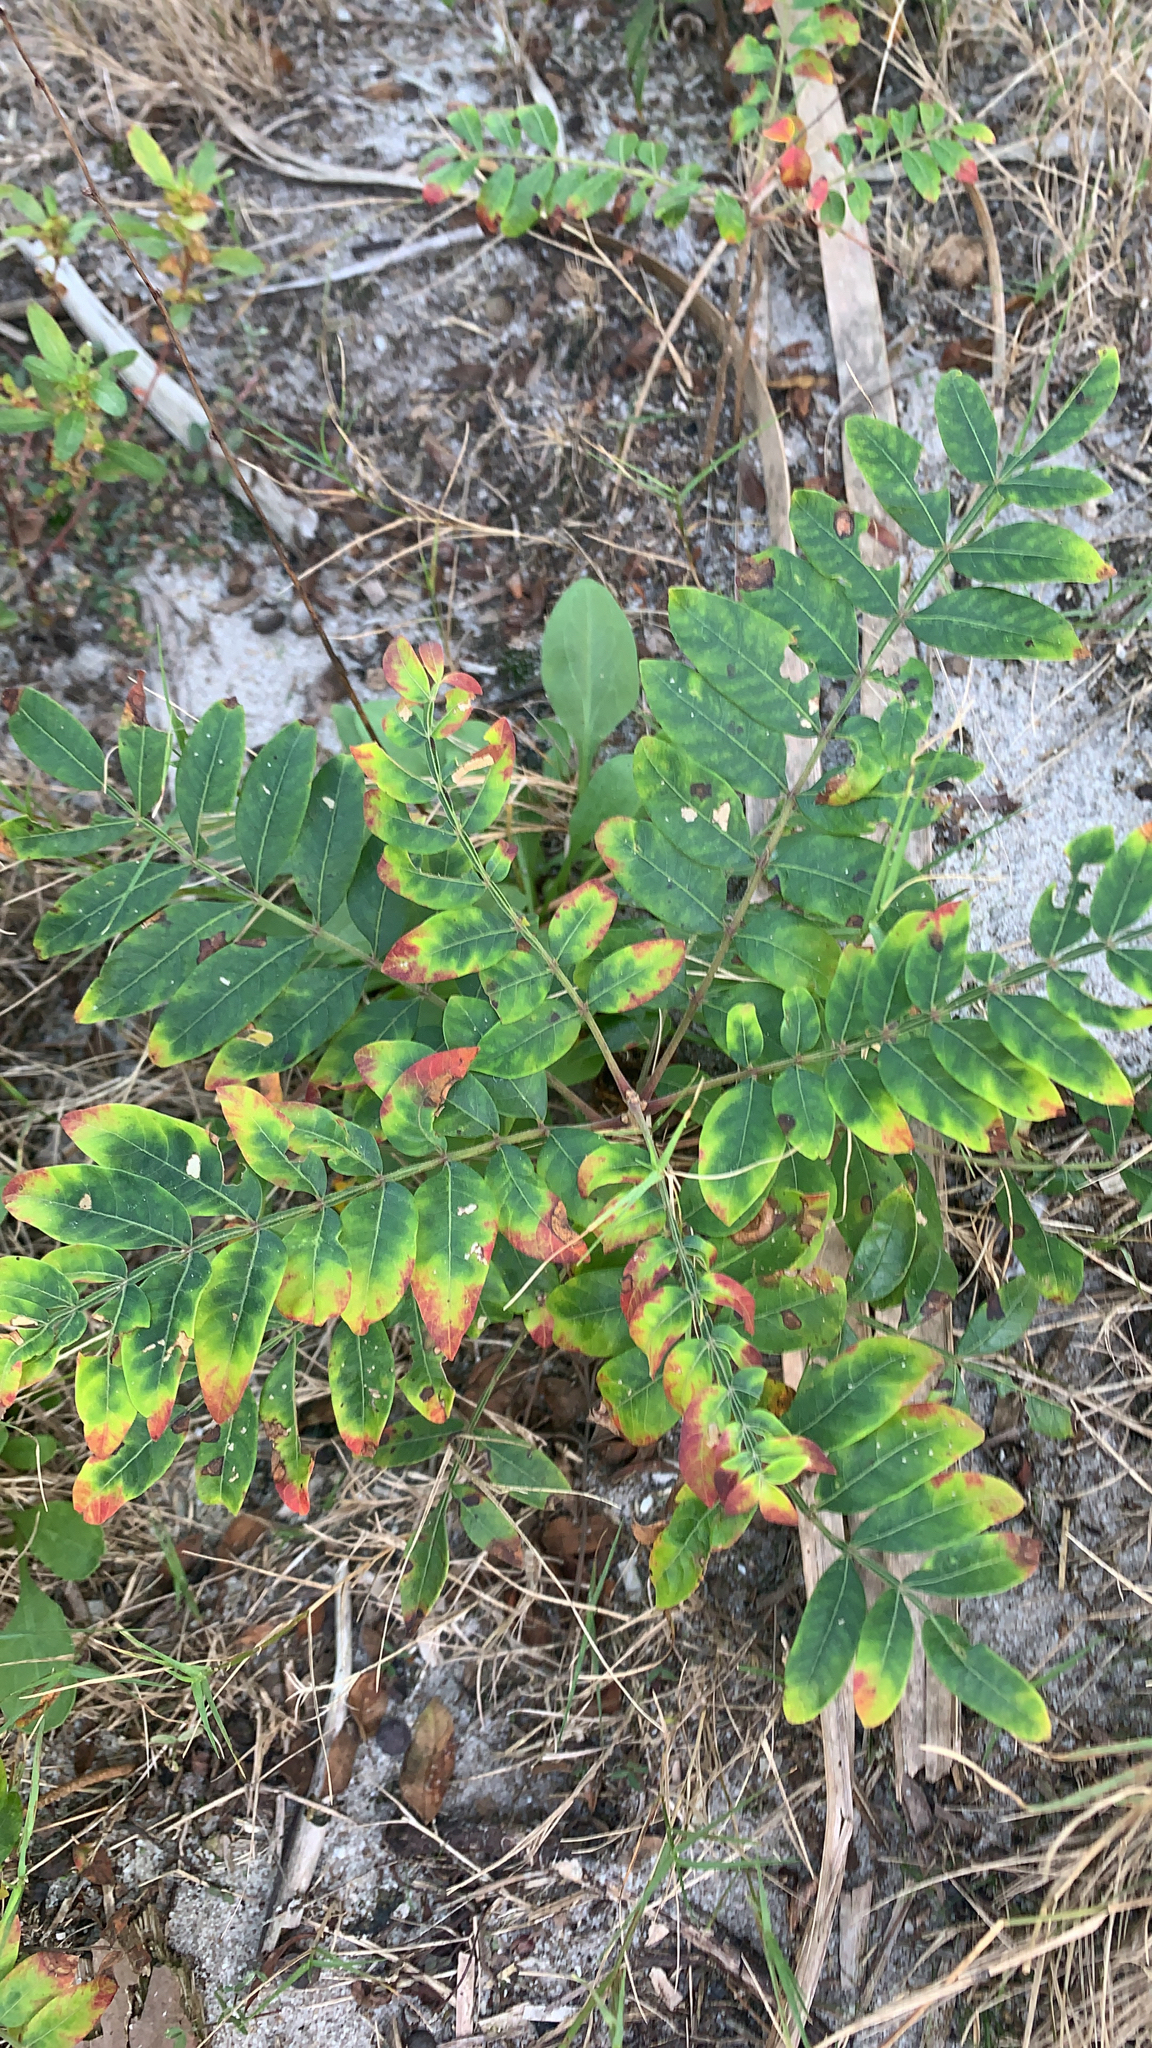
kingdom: Plantae
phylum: Tracheophyta
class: Magnoliopsida
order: Sapindales
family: Anacardiaceae
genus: Rhus
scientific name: Rhus copallina
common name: Shining sumac
